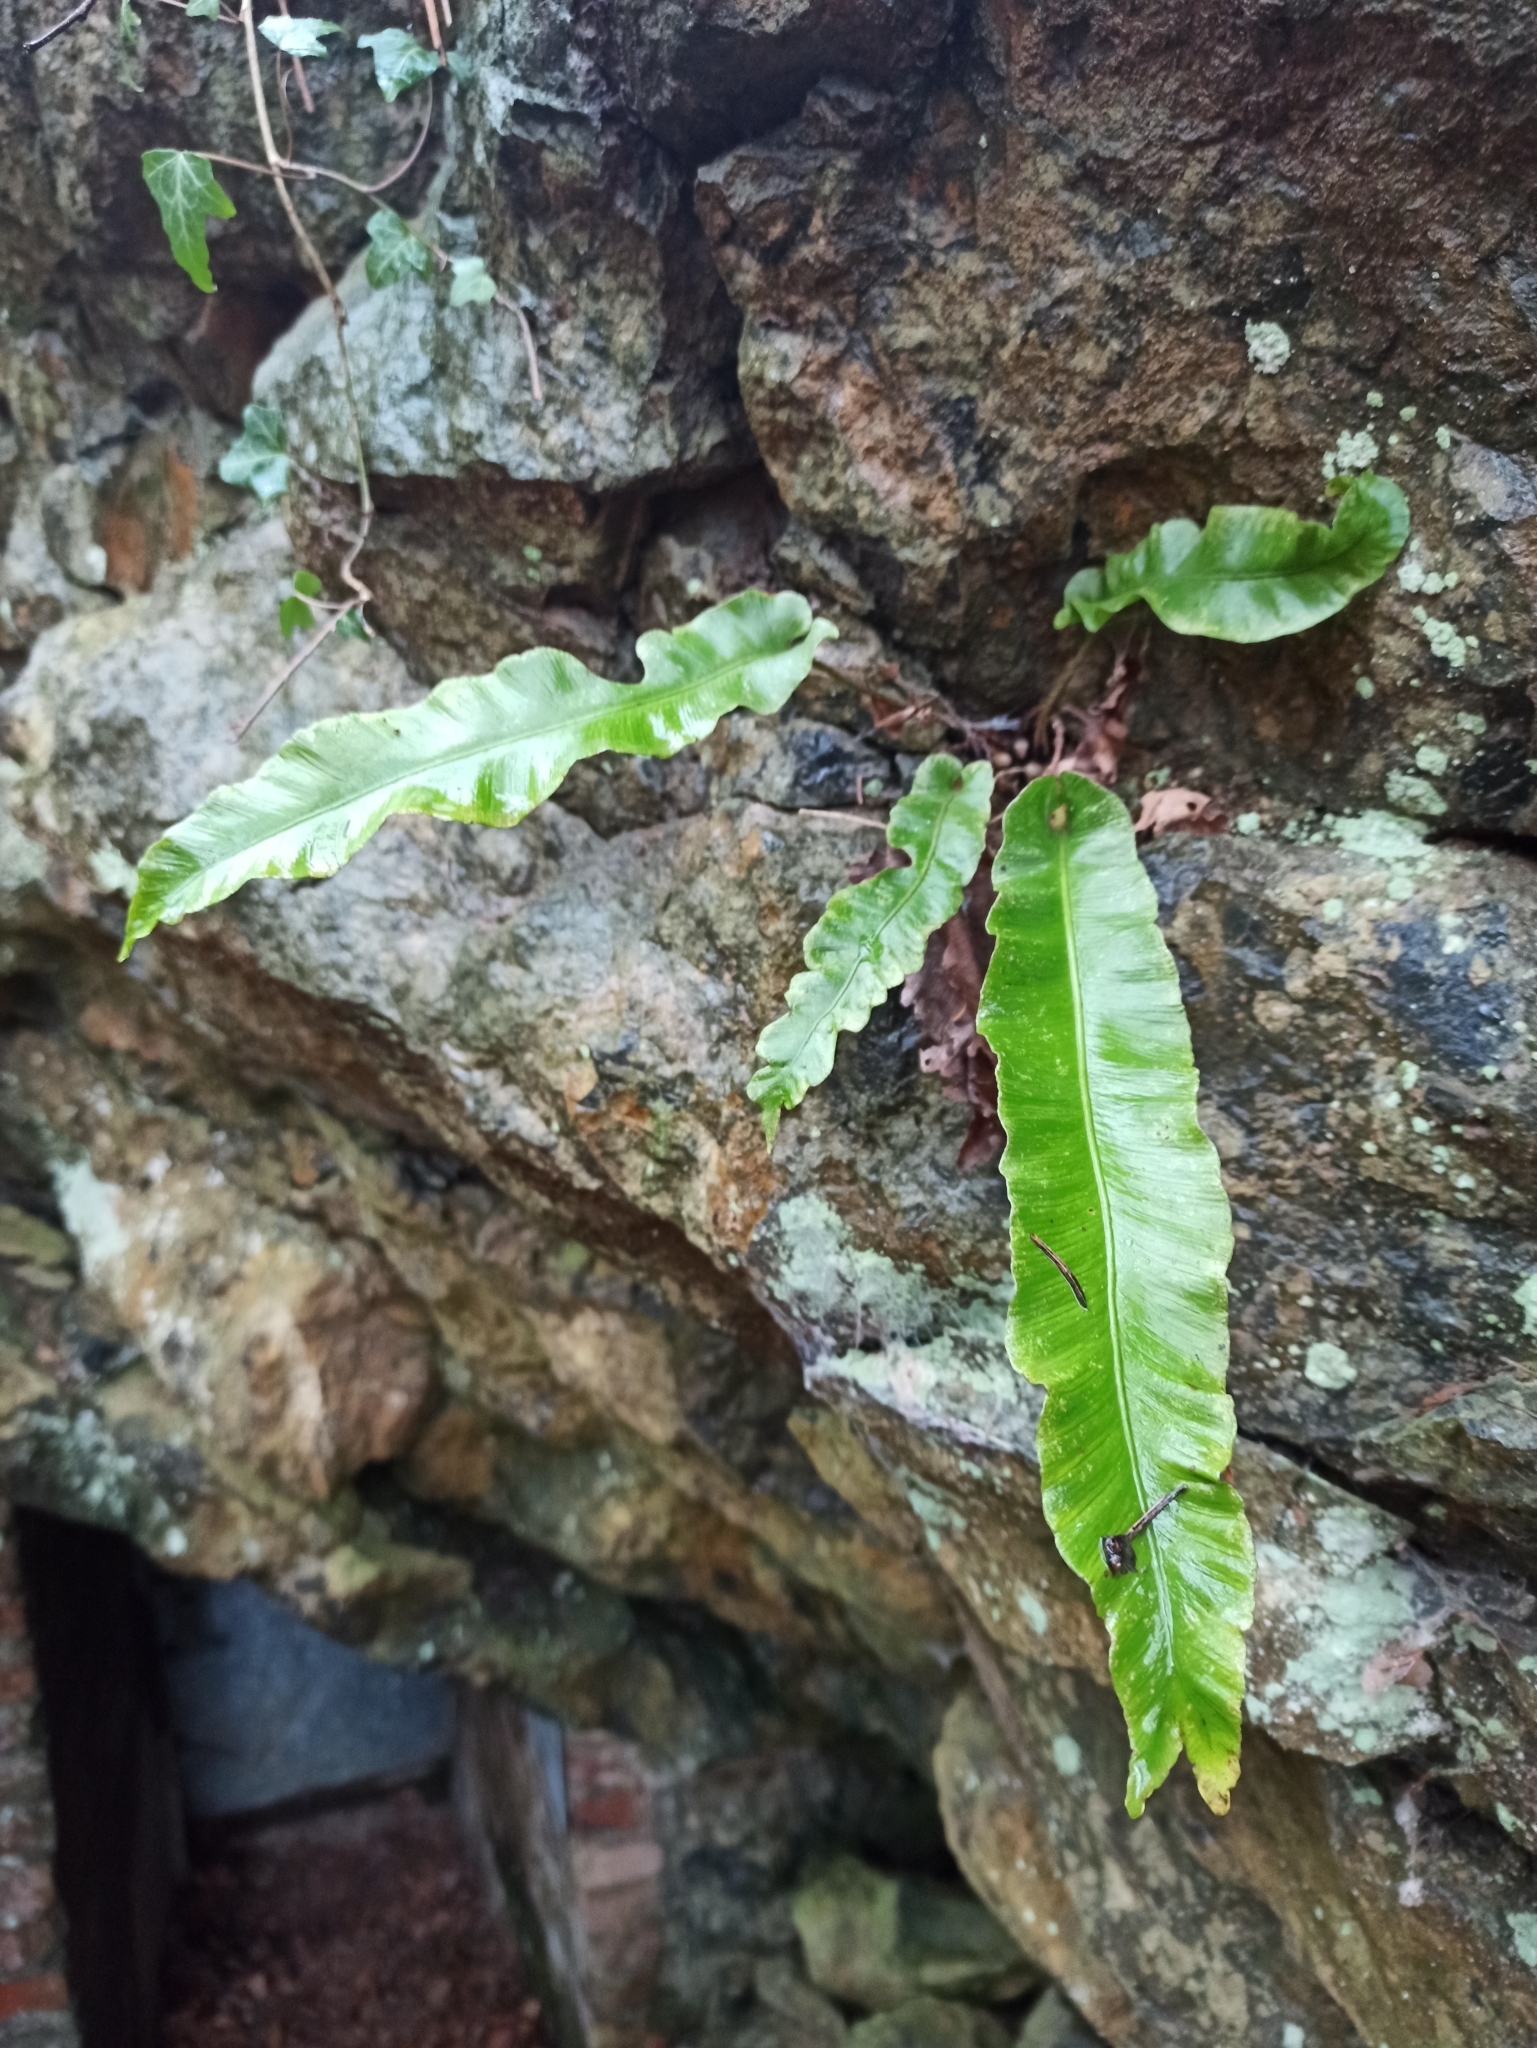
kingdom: Plantae
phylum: Tracheophyta
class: Polypodiopsida
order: Polypodiales
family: Aspleniaceae
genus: Asplenium
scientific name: Asplenium scolopendrium
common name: Hart's-tongue fern
